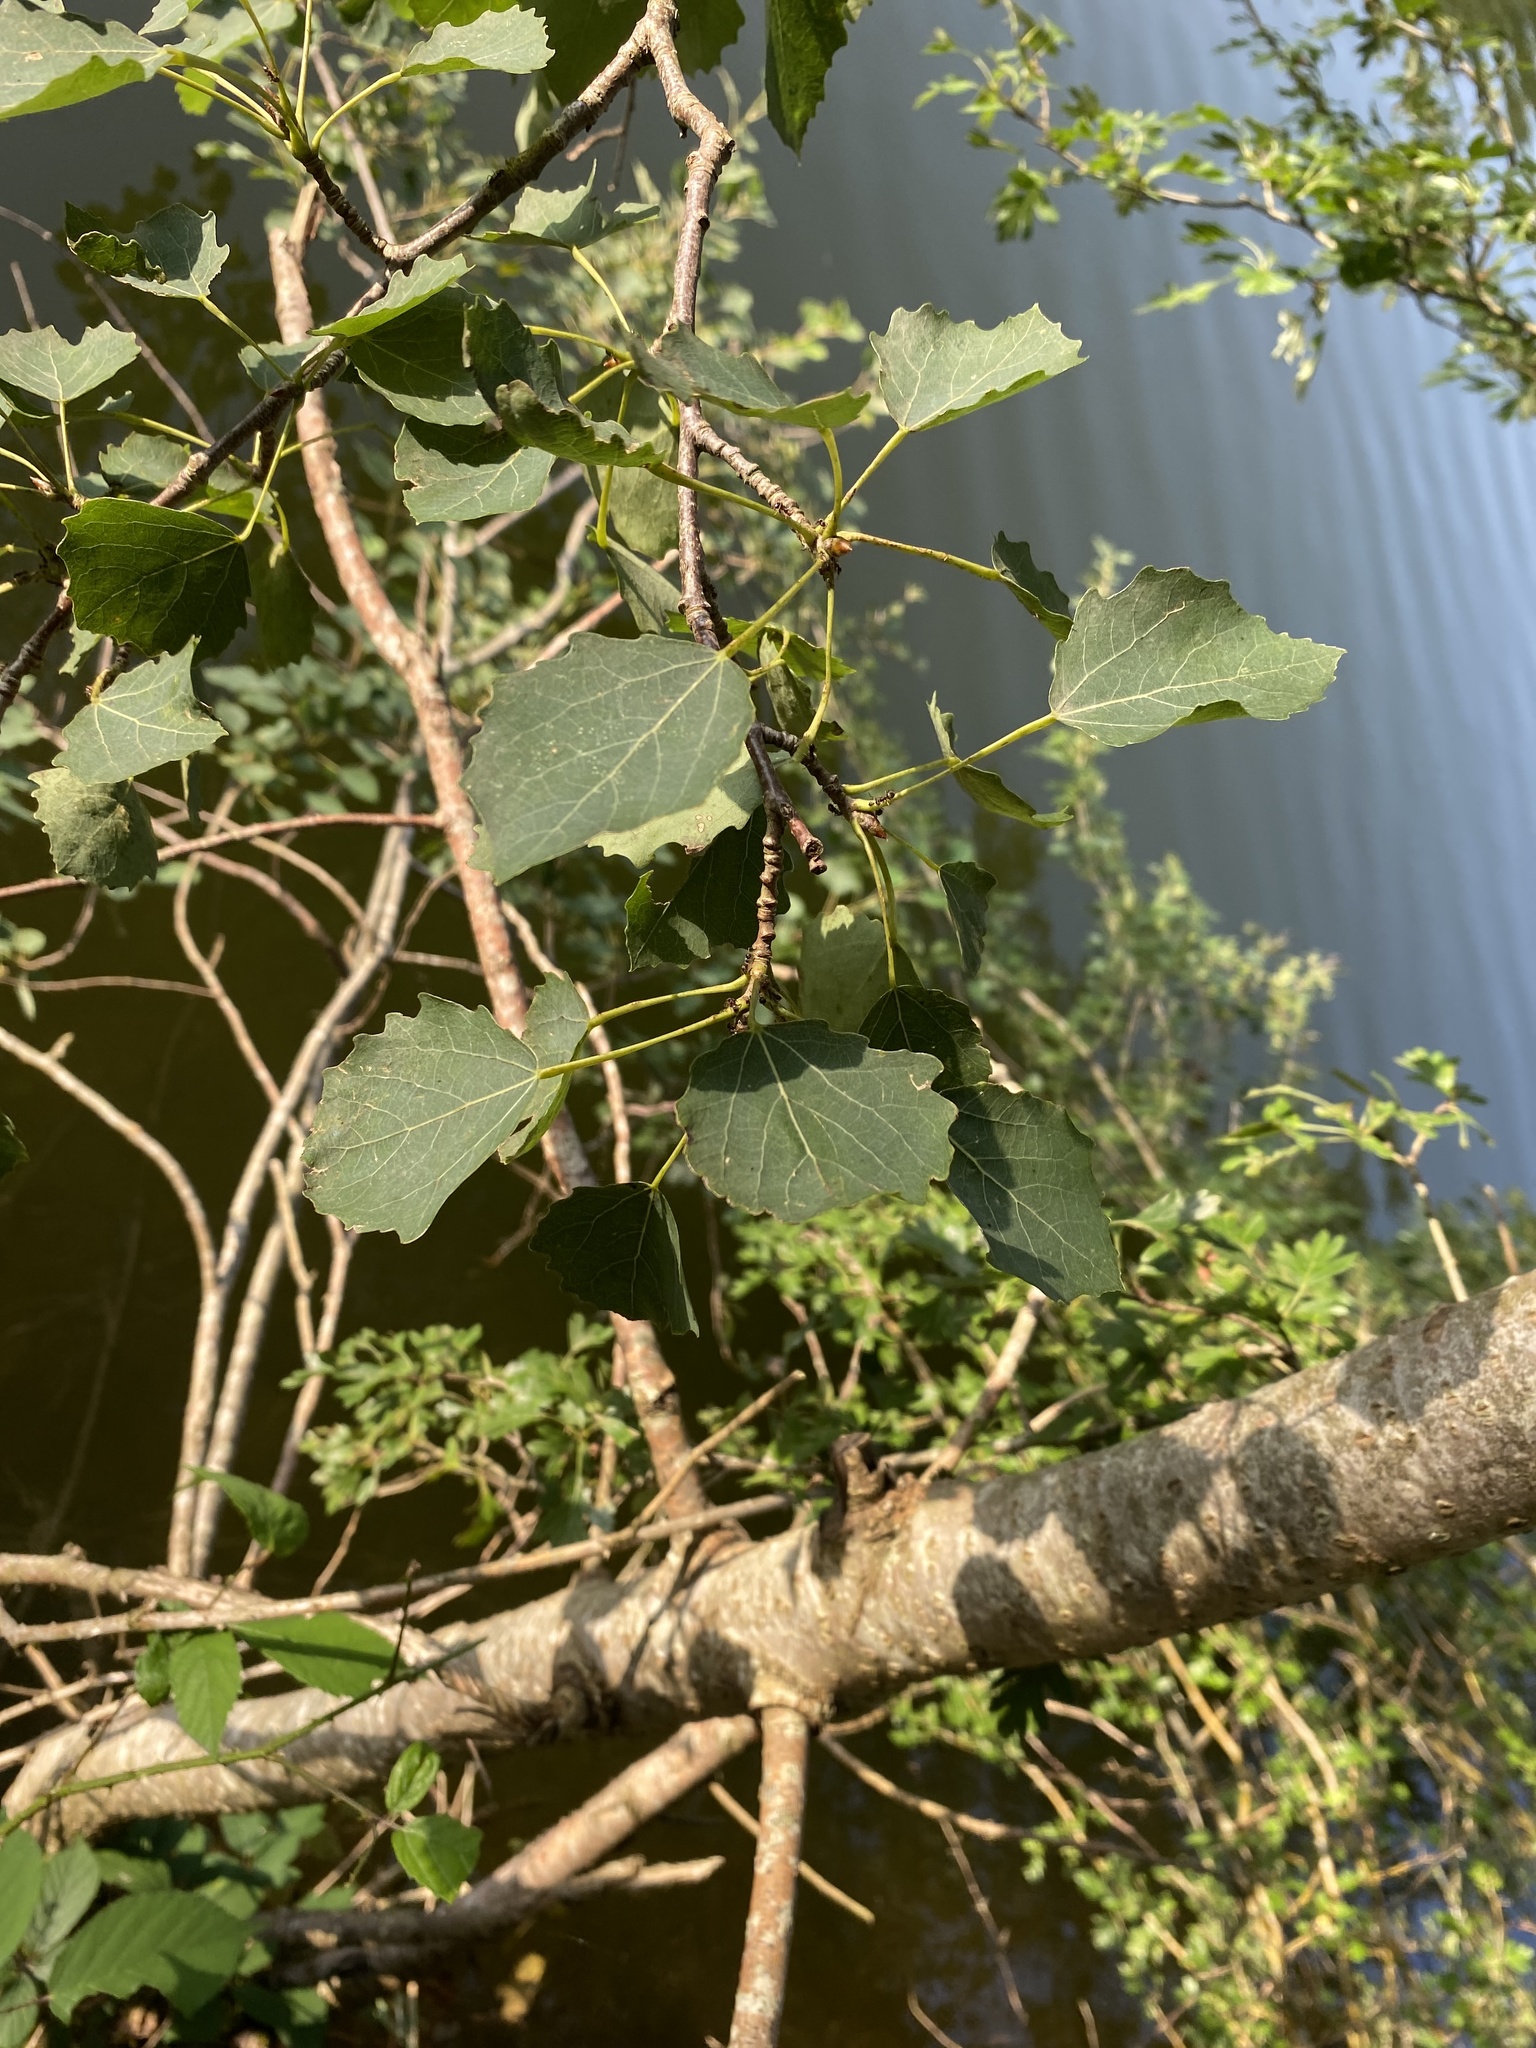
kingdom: Plantae
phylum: Tracheophyta
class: Magnoliopsida
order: Malpighiales
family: Salicaceae
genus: Populus
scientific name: Populus tremula
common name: European aspen
